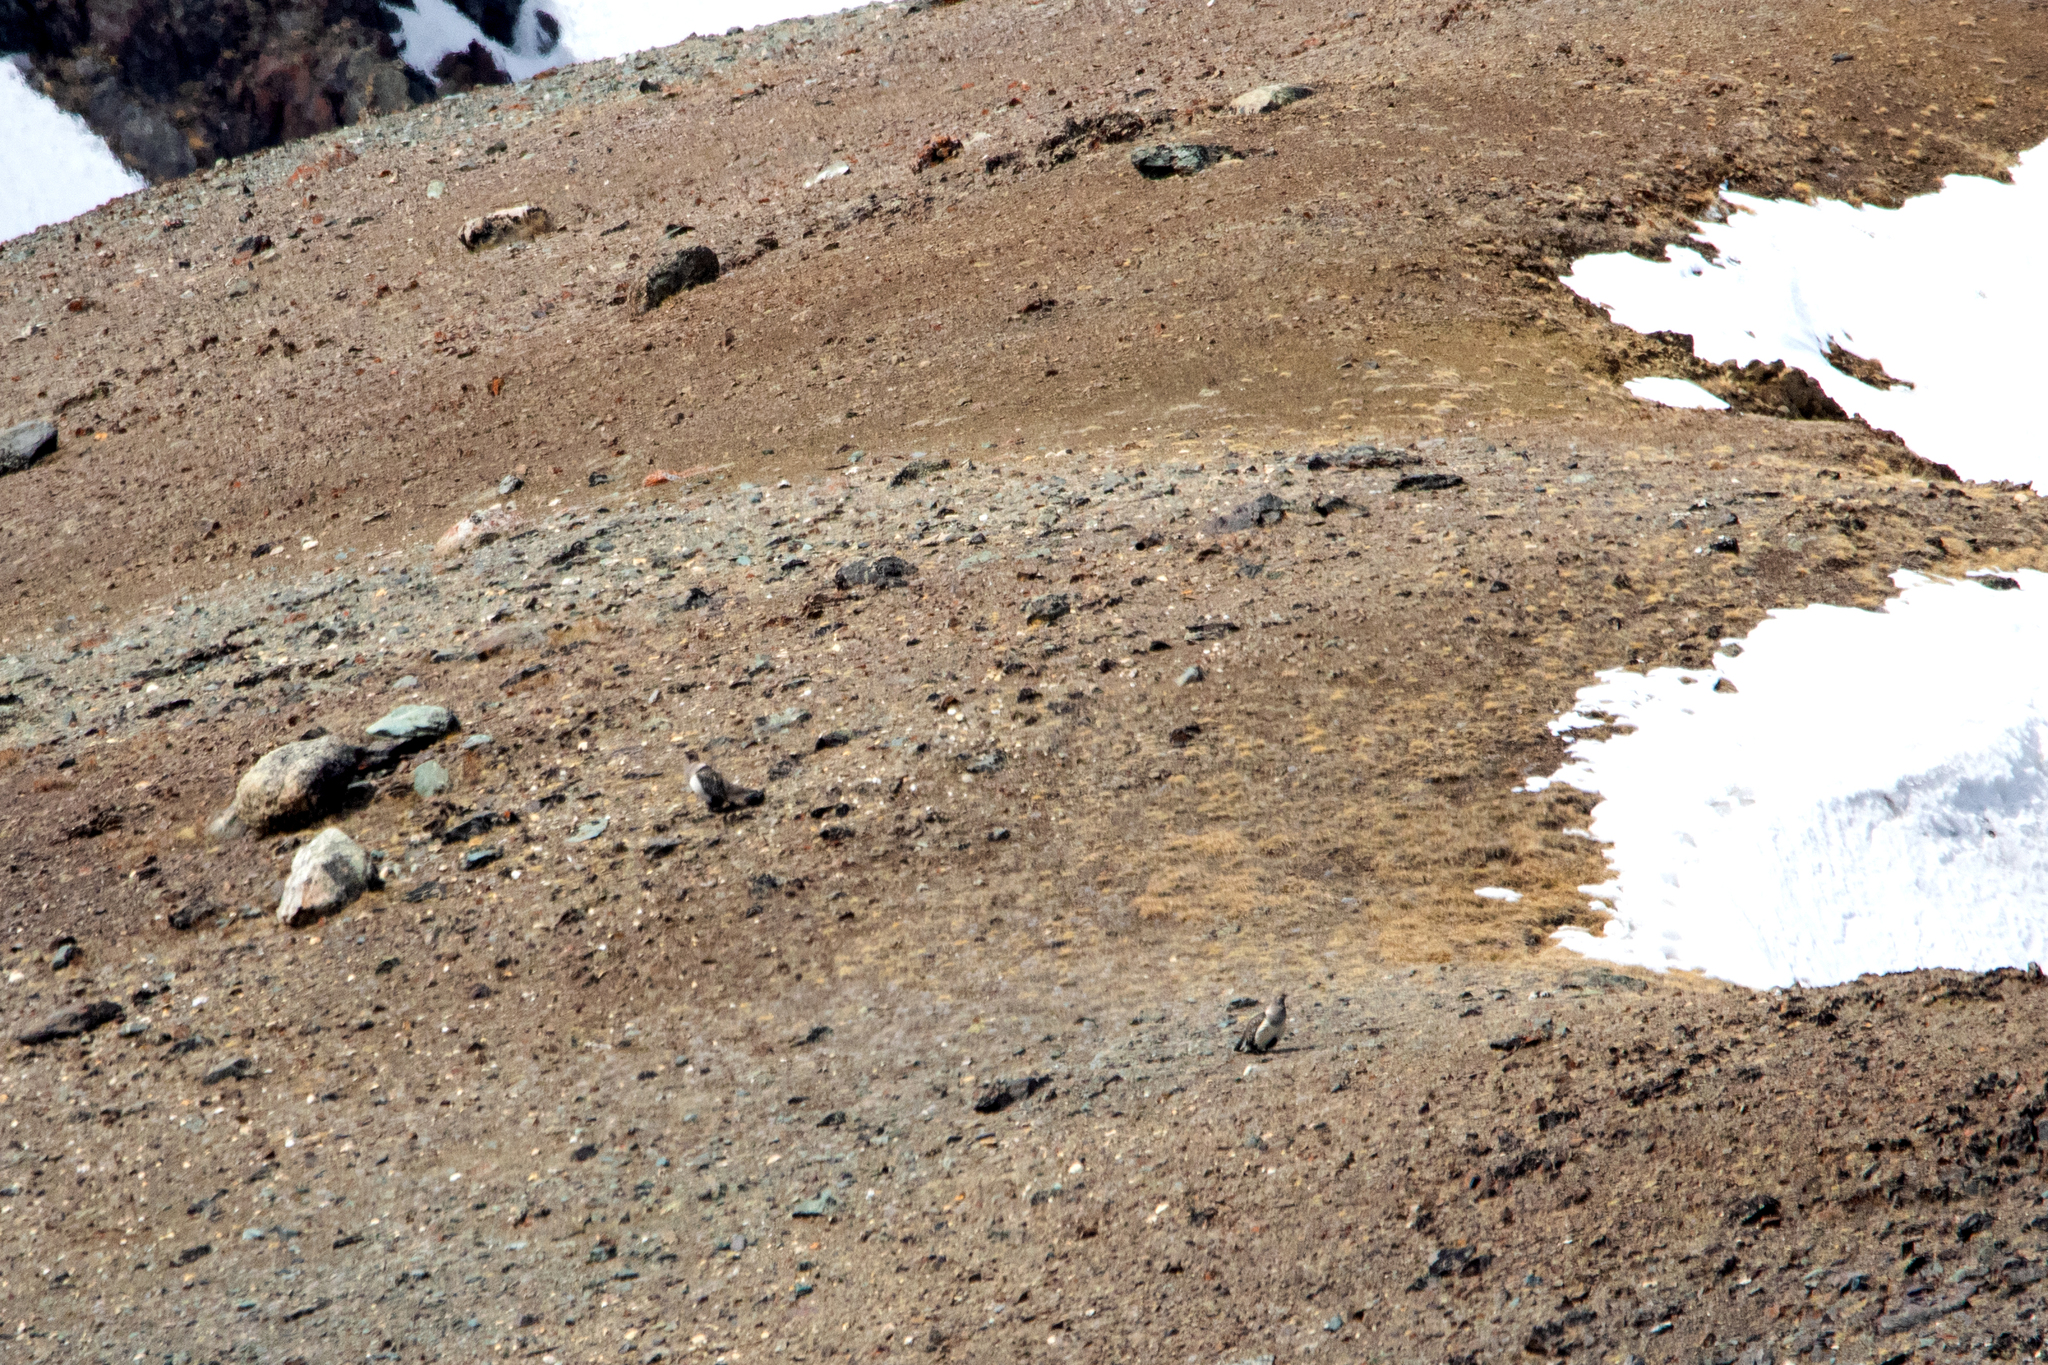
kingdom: Animalia
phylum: Chordata
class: Aves
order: Galliformes
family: Phasianidae
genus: Tetraogallus
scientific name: Tetraogallus altaicus
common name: Altai snowcock
